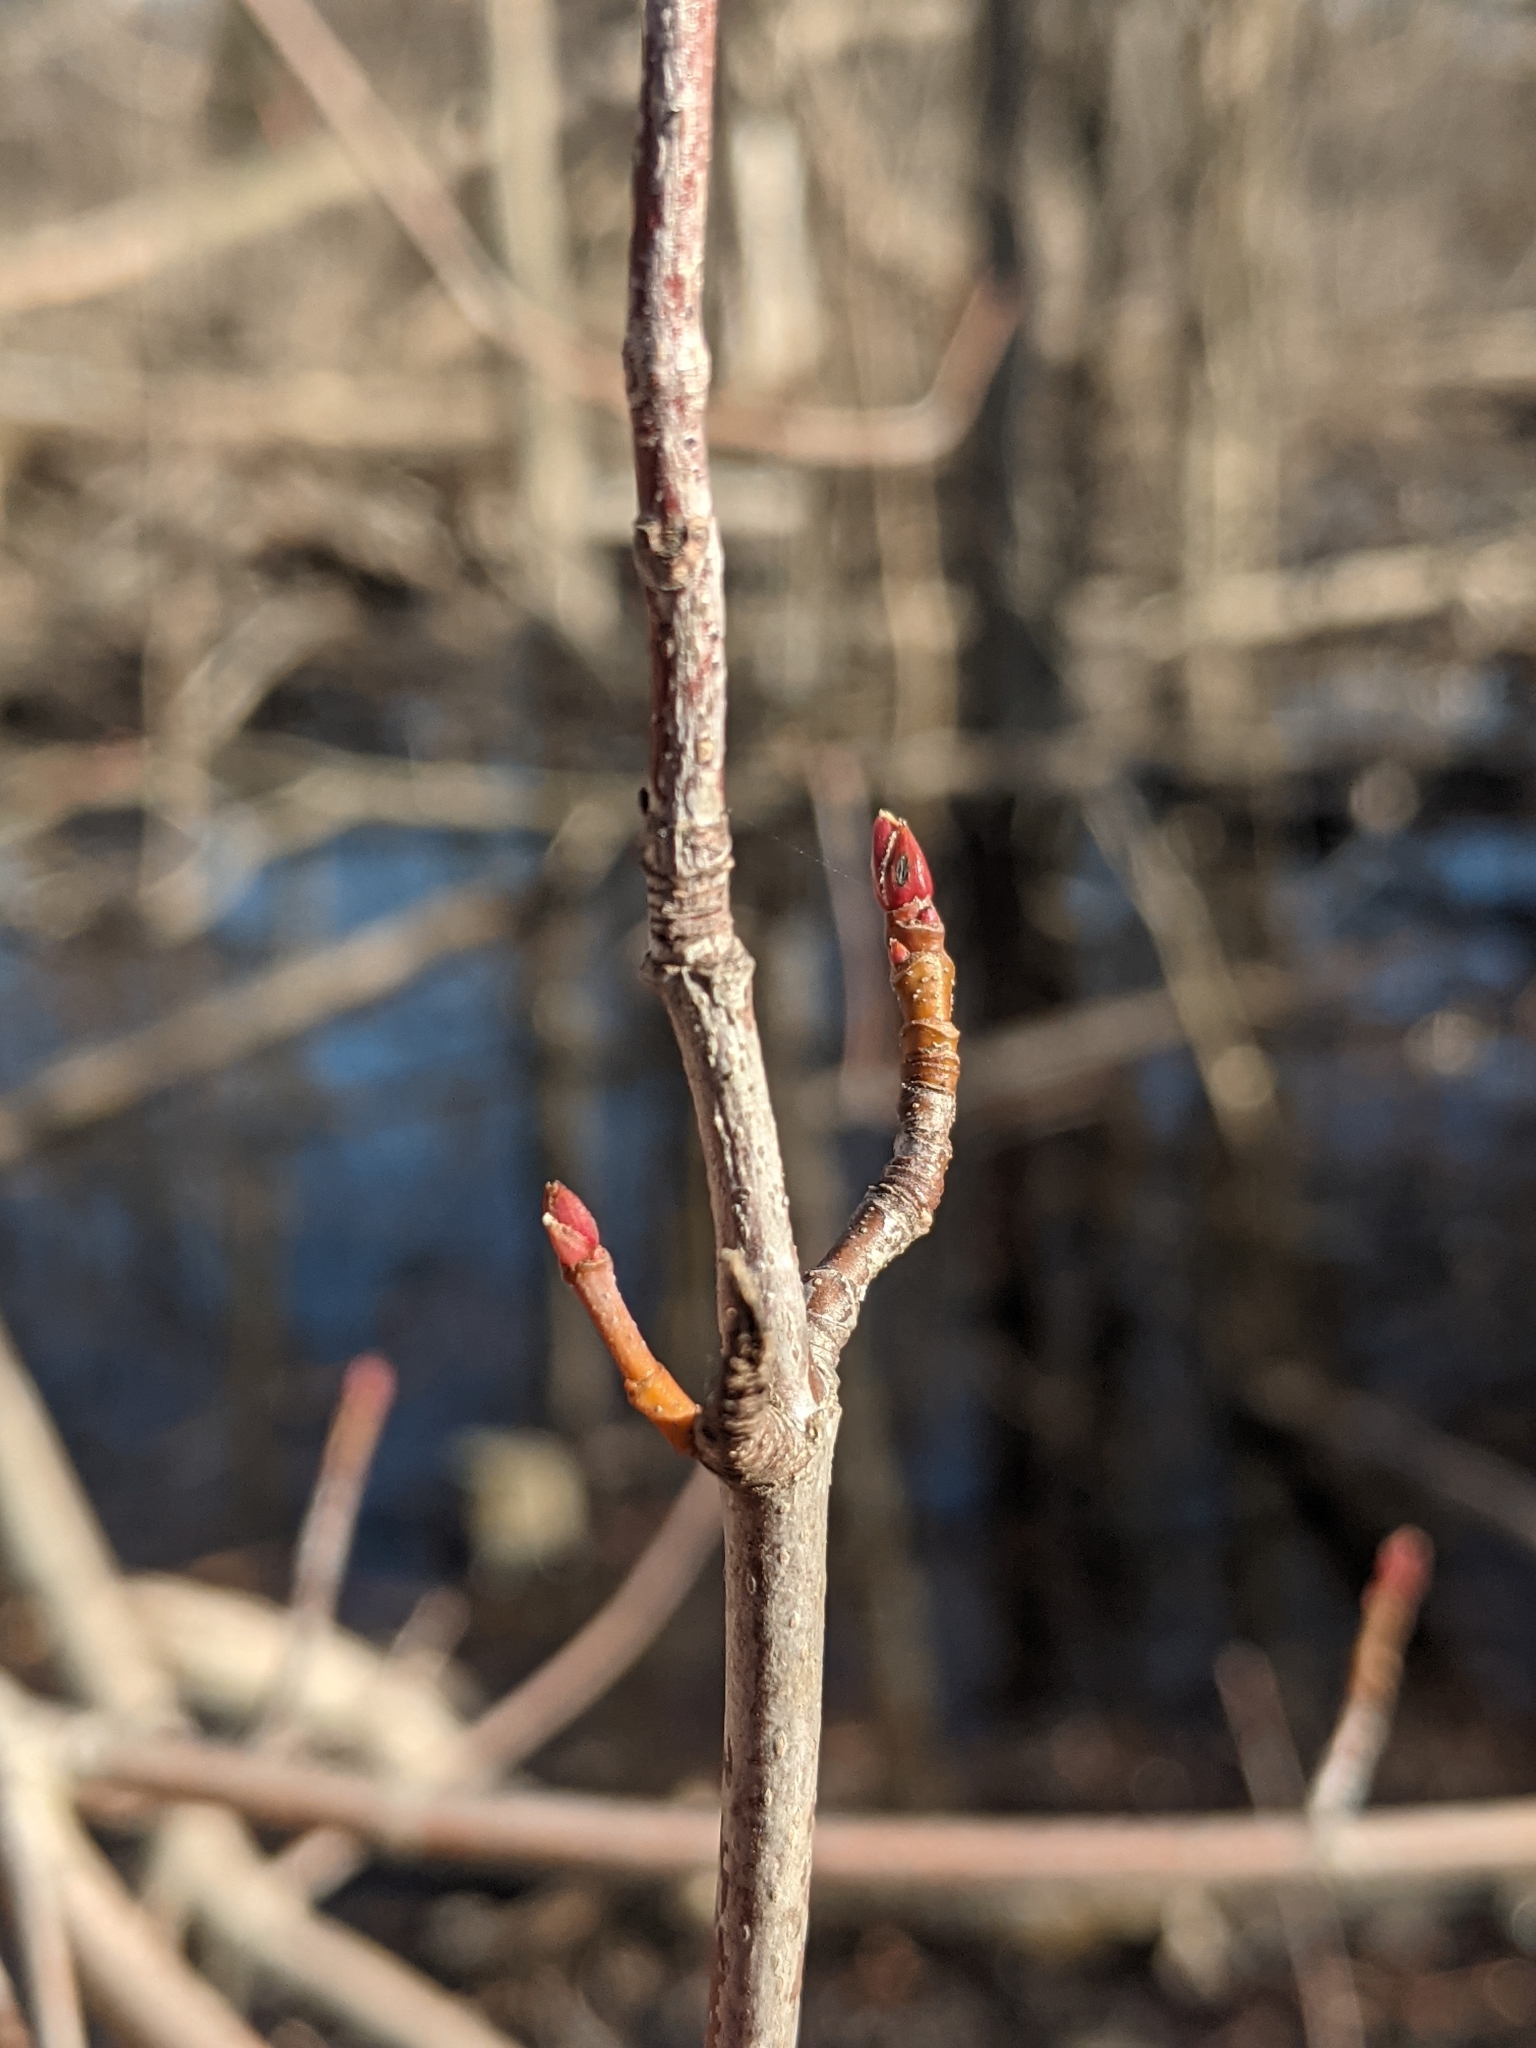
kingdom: Plantae
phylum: Tracheophyta
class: Magnoliopsida
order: Sapindales
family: Sapindaceae
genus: Acer
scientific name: Acer saccharinum
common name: Silver maple
